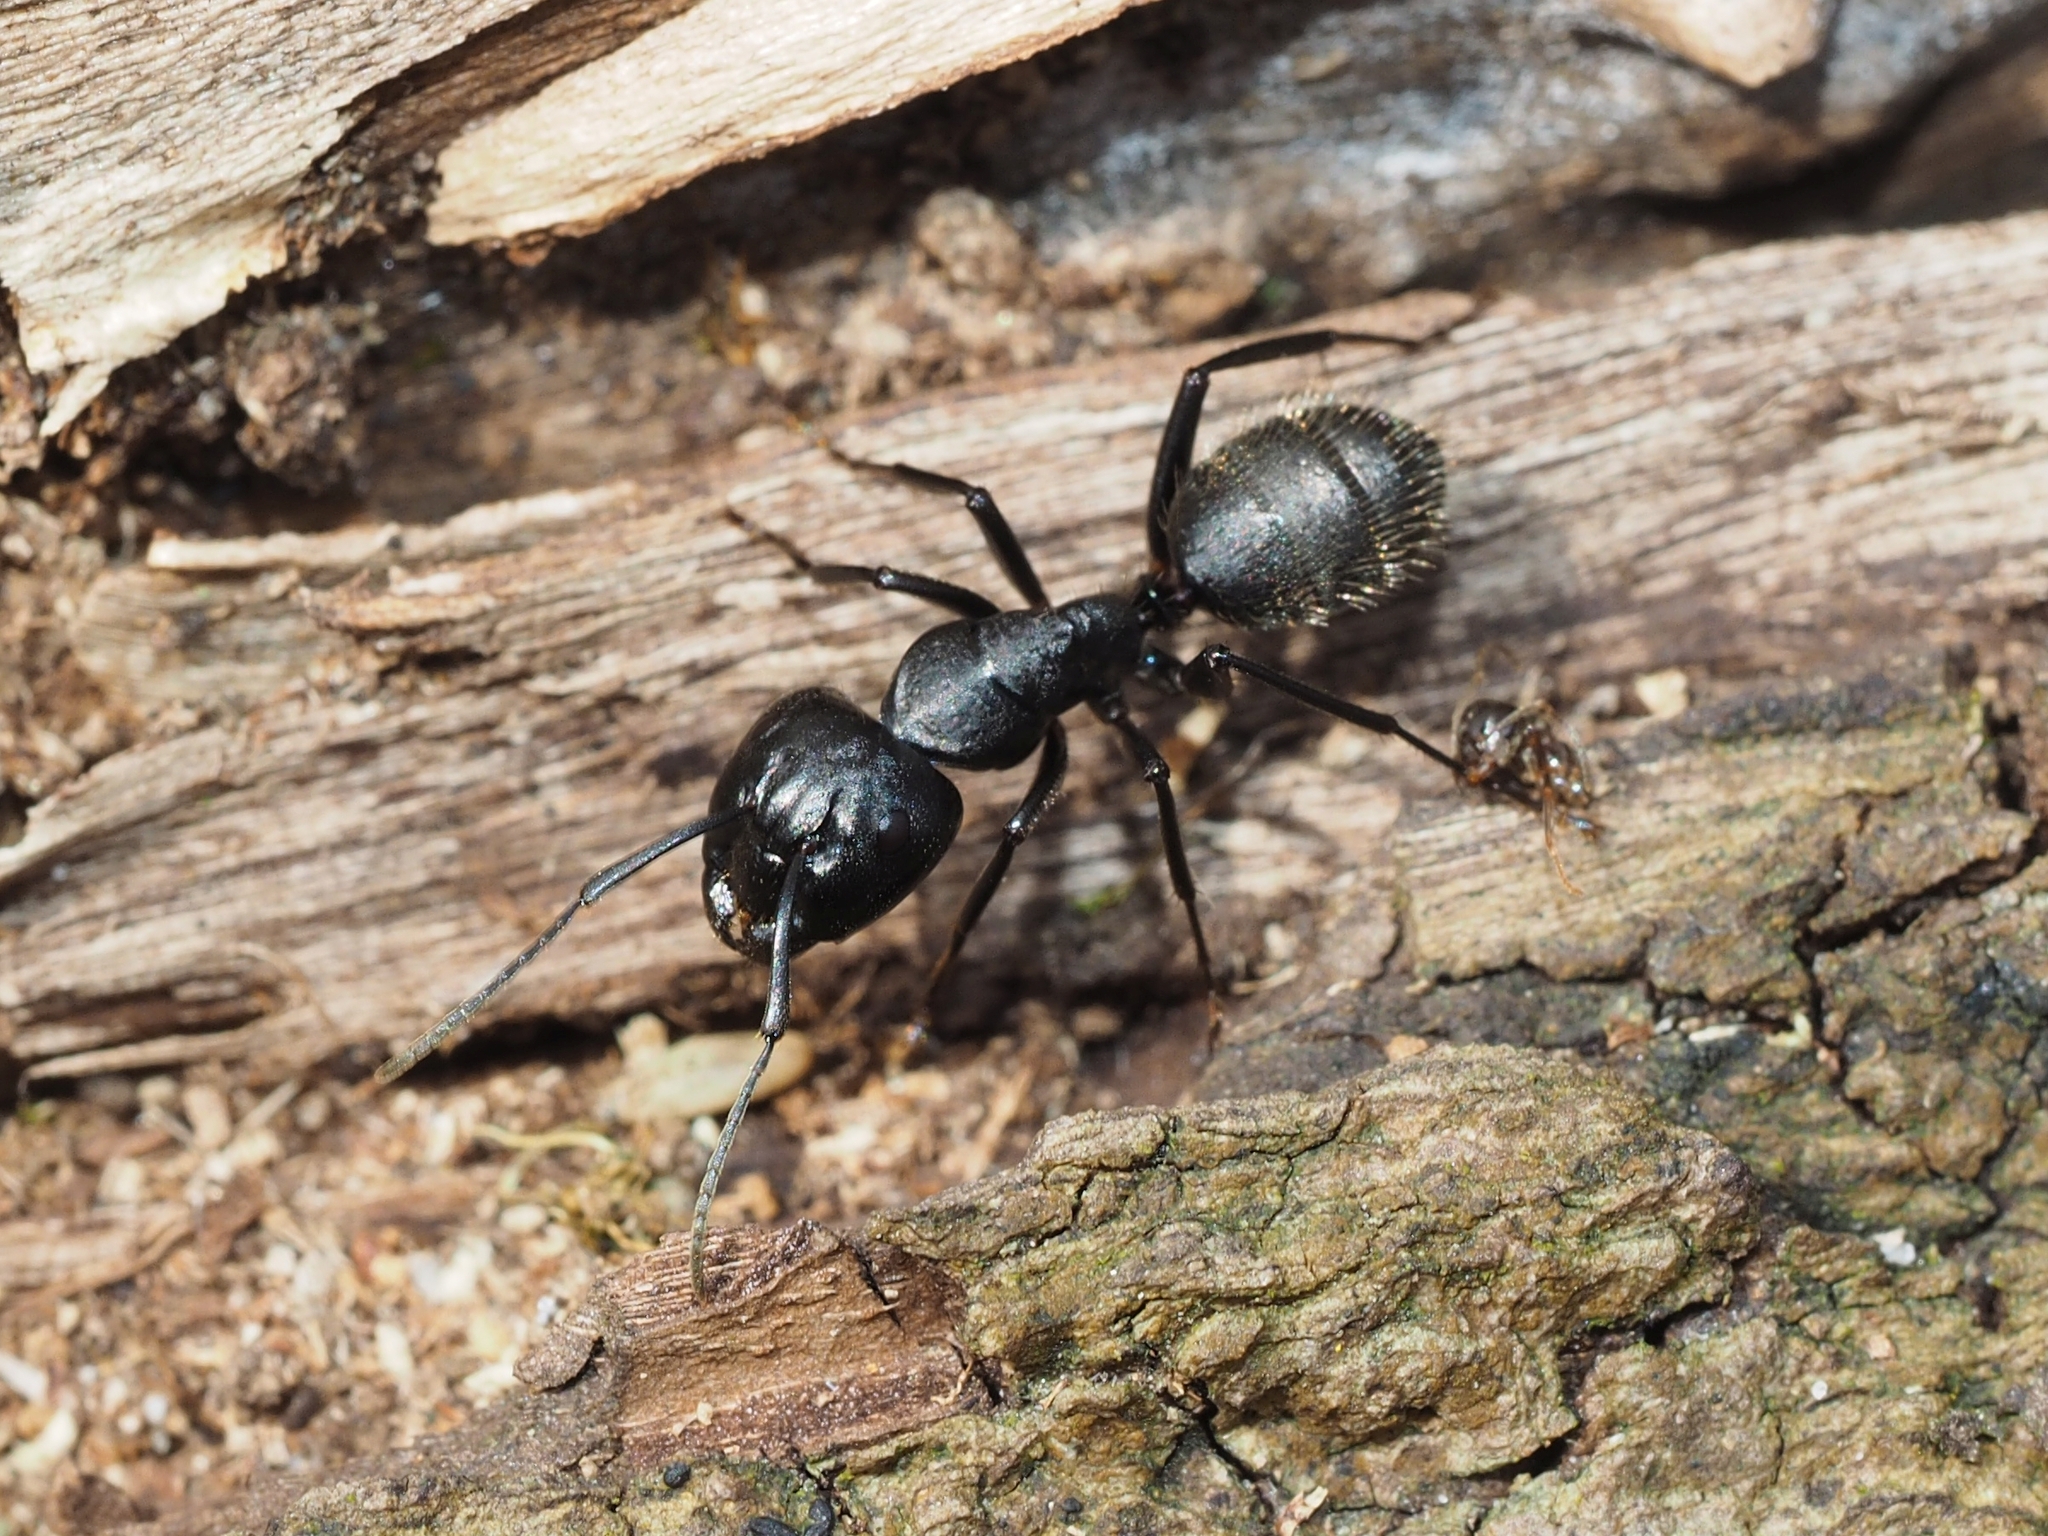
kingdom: Animalia
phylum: Arthropoda
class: Insecta
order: Hymenoptera
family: Formicidae
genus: Camponotus
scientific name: Camponotus vagus
